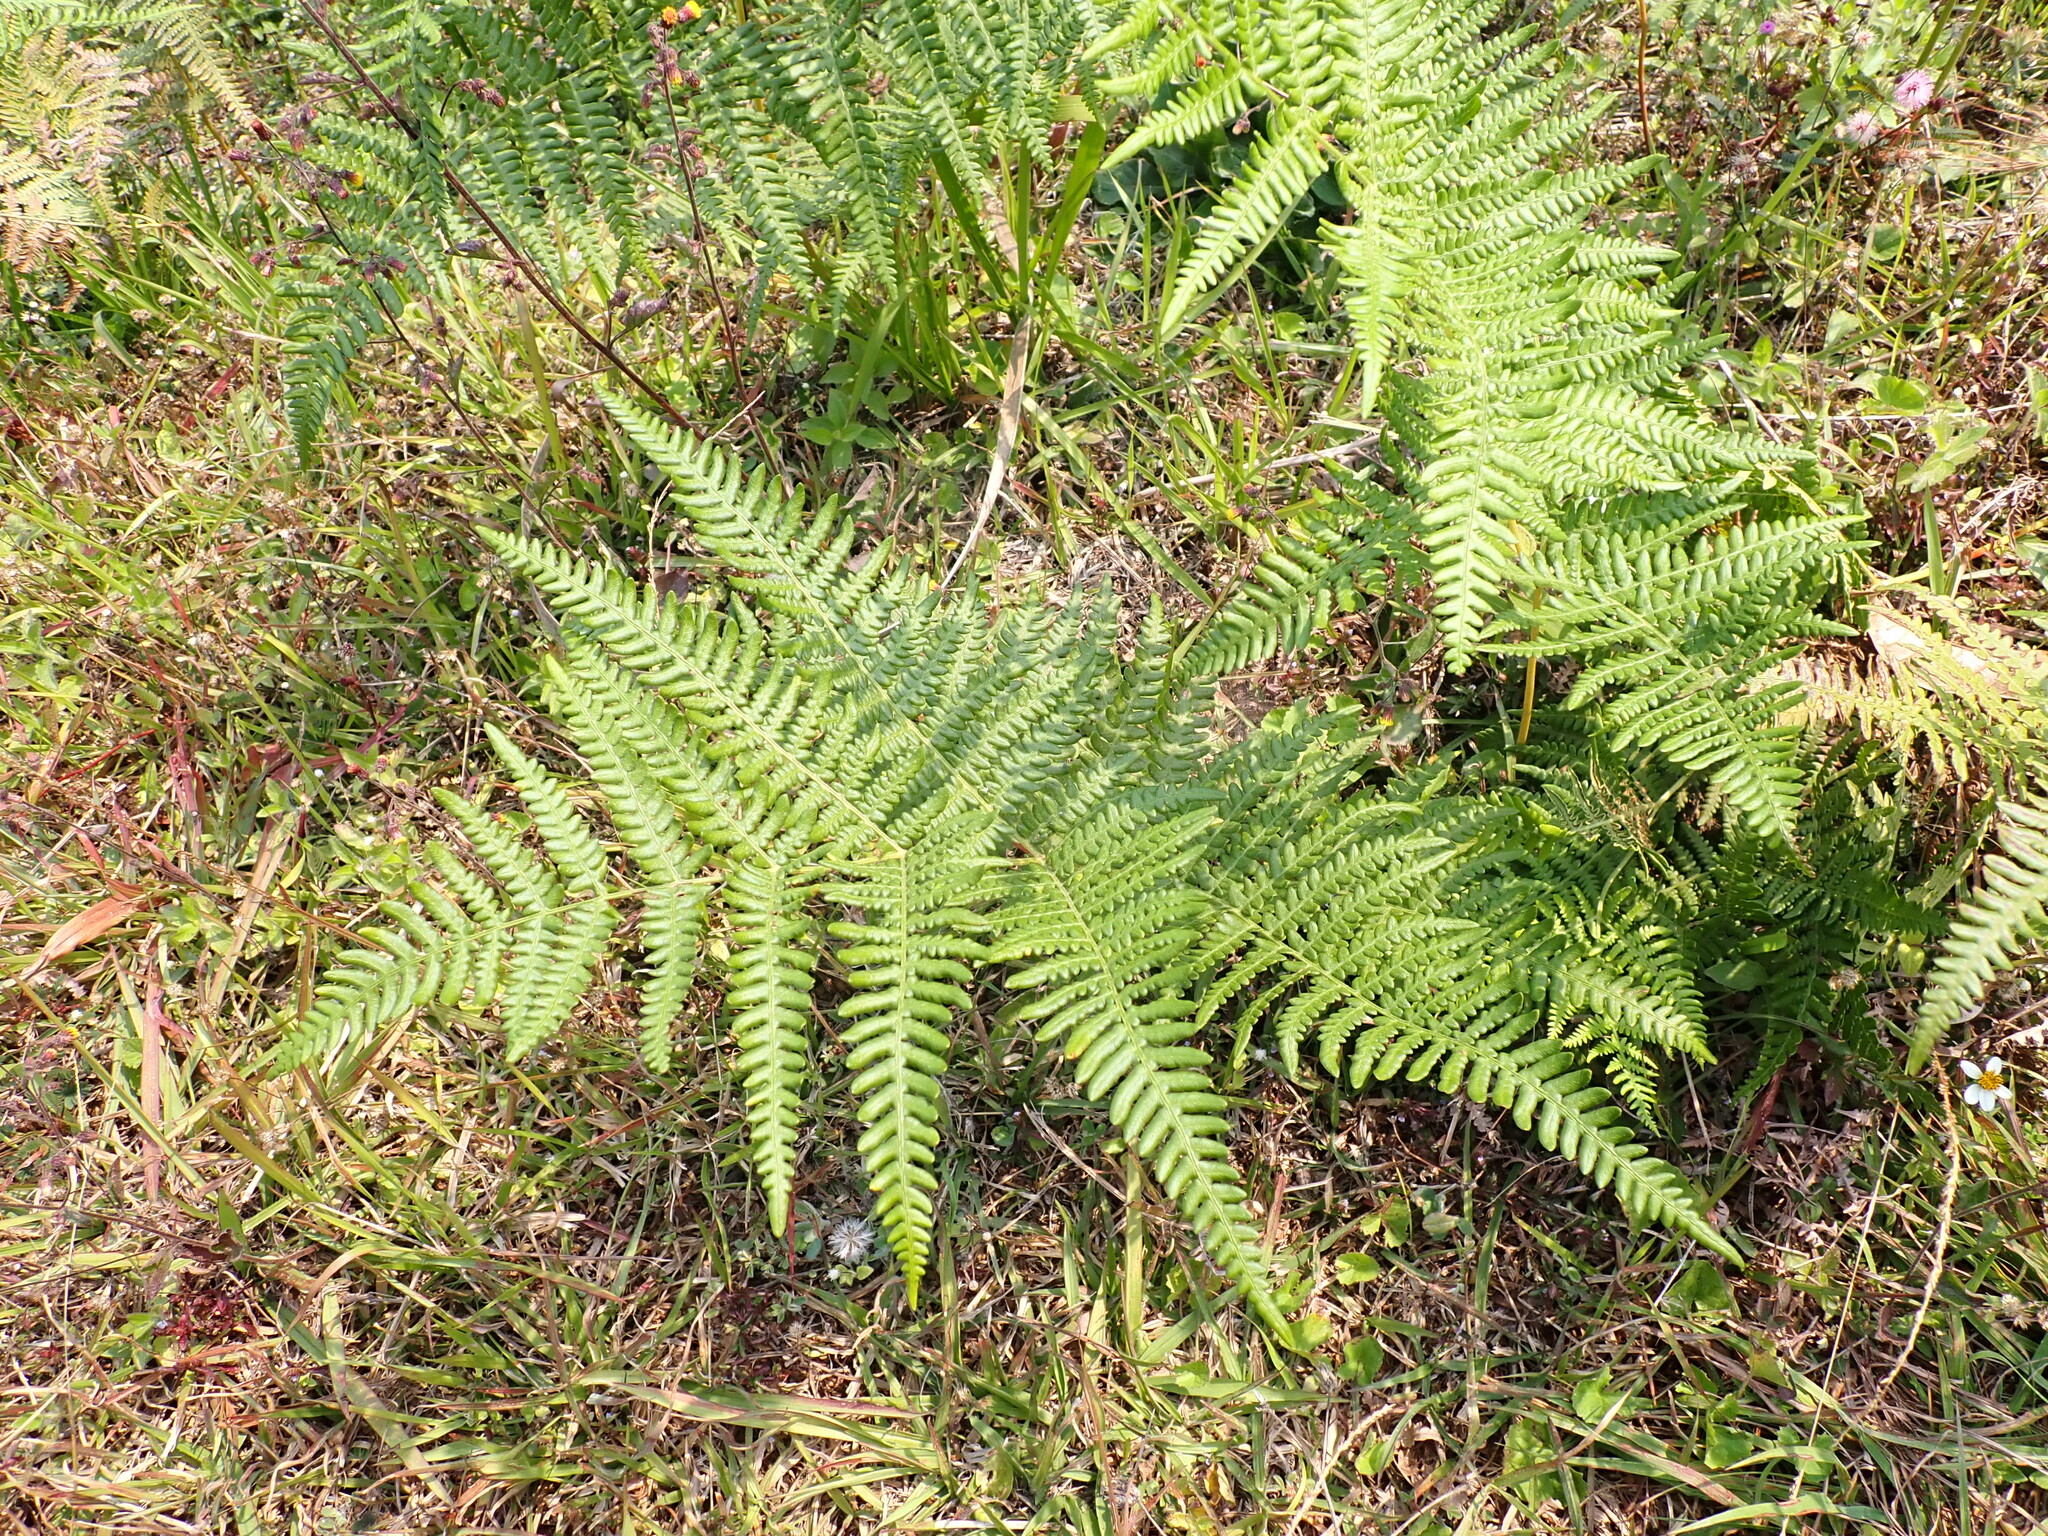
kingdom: Plantae
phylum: Tracheophyta
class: Polypodiopsida
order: Polypodiales
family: Dennstaedtiaceae
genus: Pteridium
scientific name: Pteridium aquilinum
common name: Bracken
